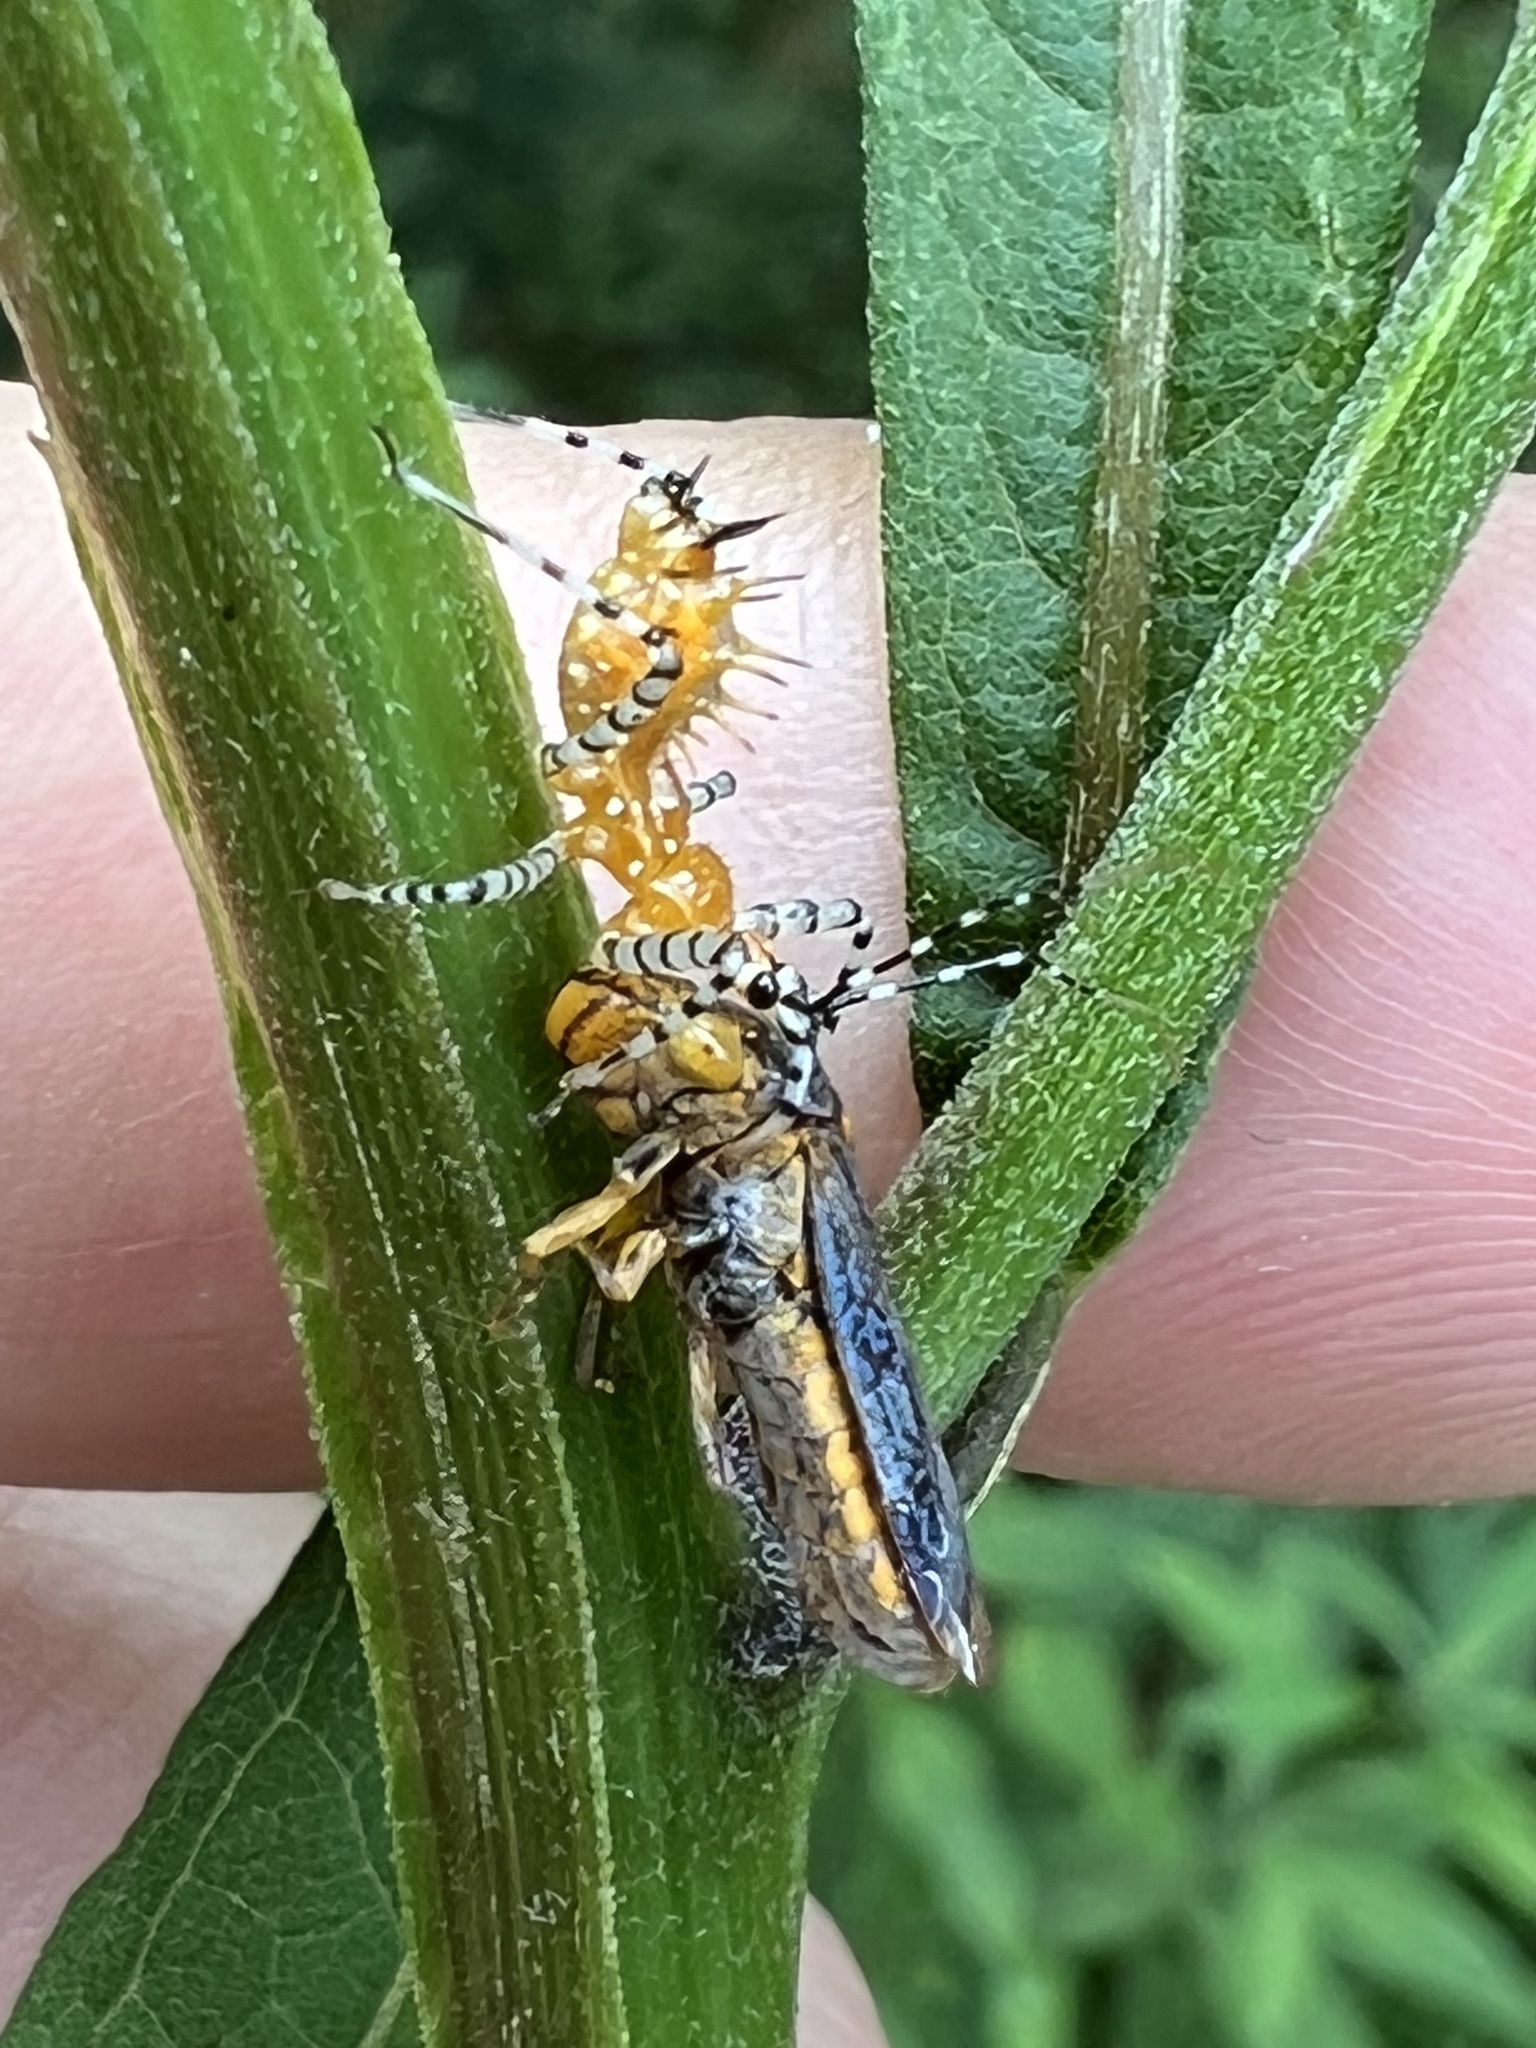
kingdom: Animalia
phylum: Arthropoda
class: Insecta
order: Hemiptera
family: Cicadellidae
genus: Oncometopia
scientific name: Oncometopia orbona
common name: Broad-headed sharpshooter
